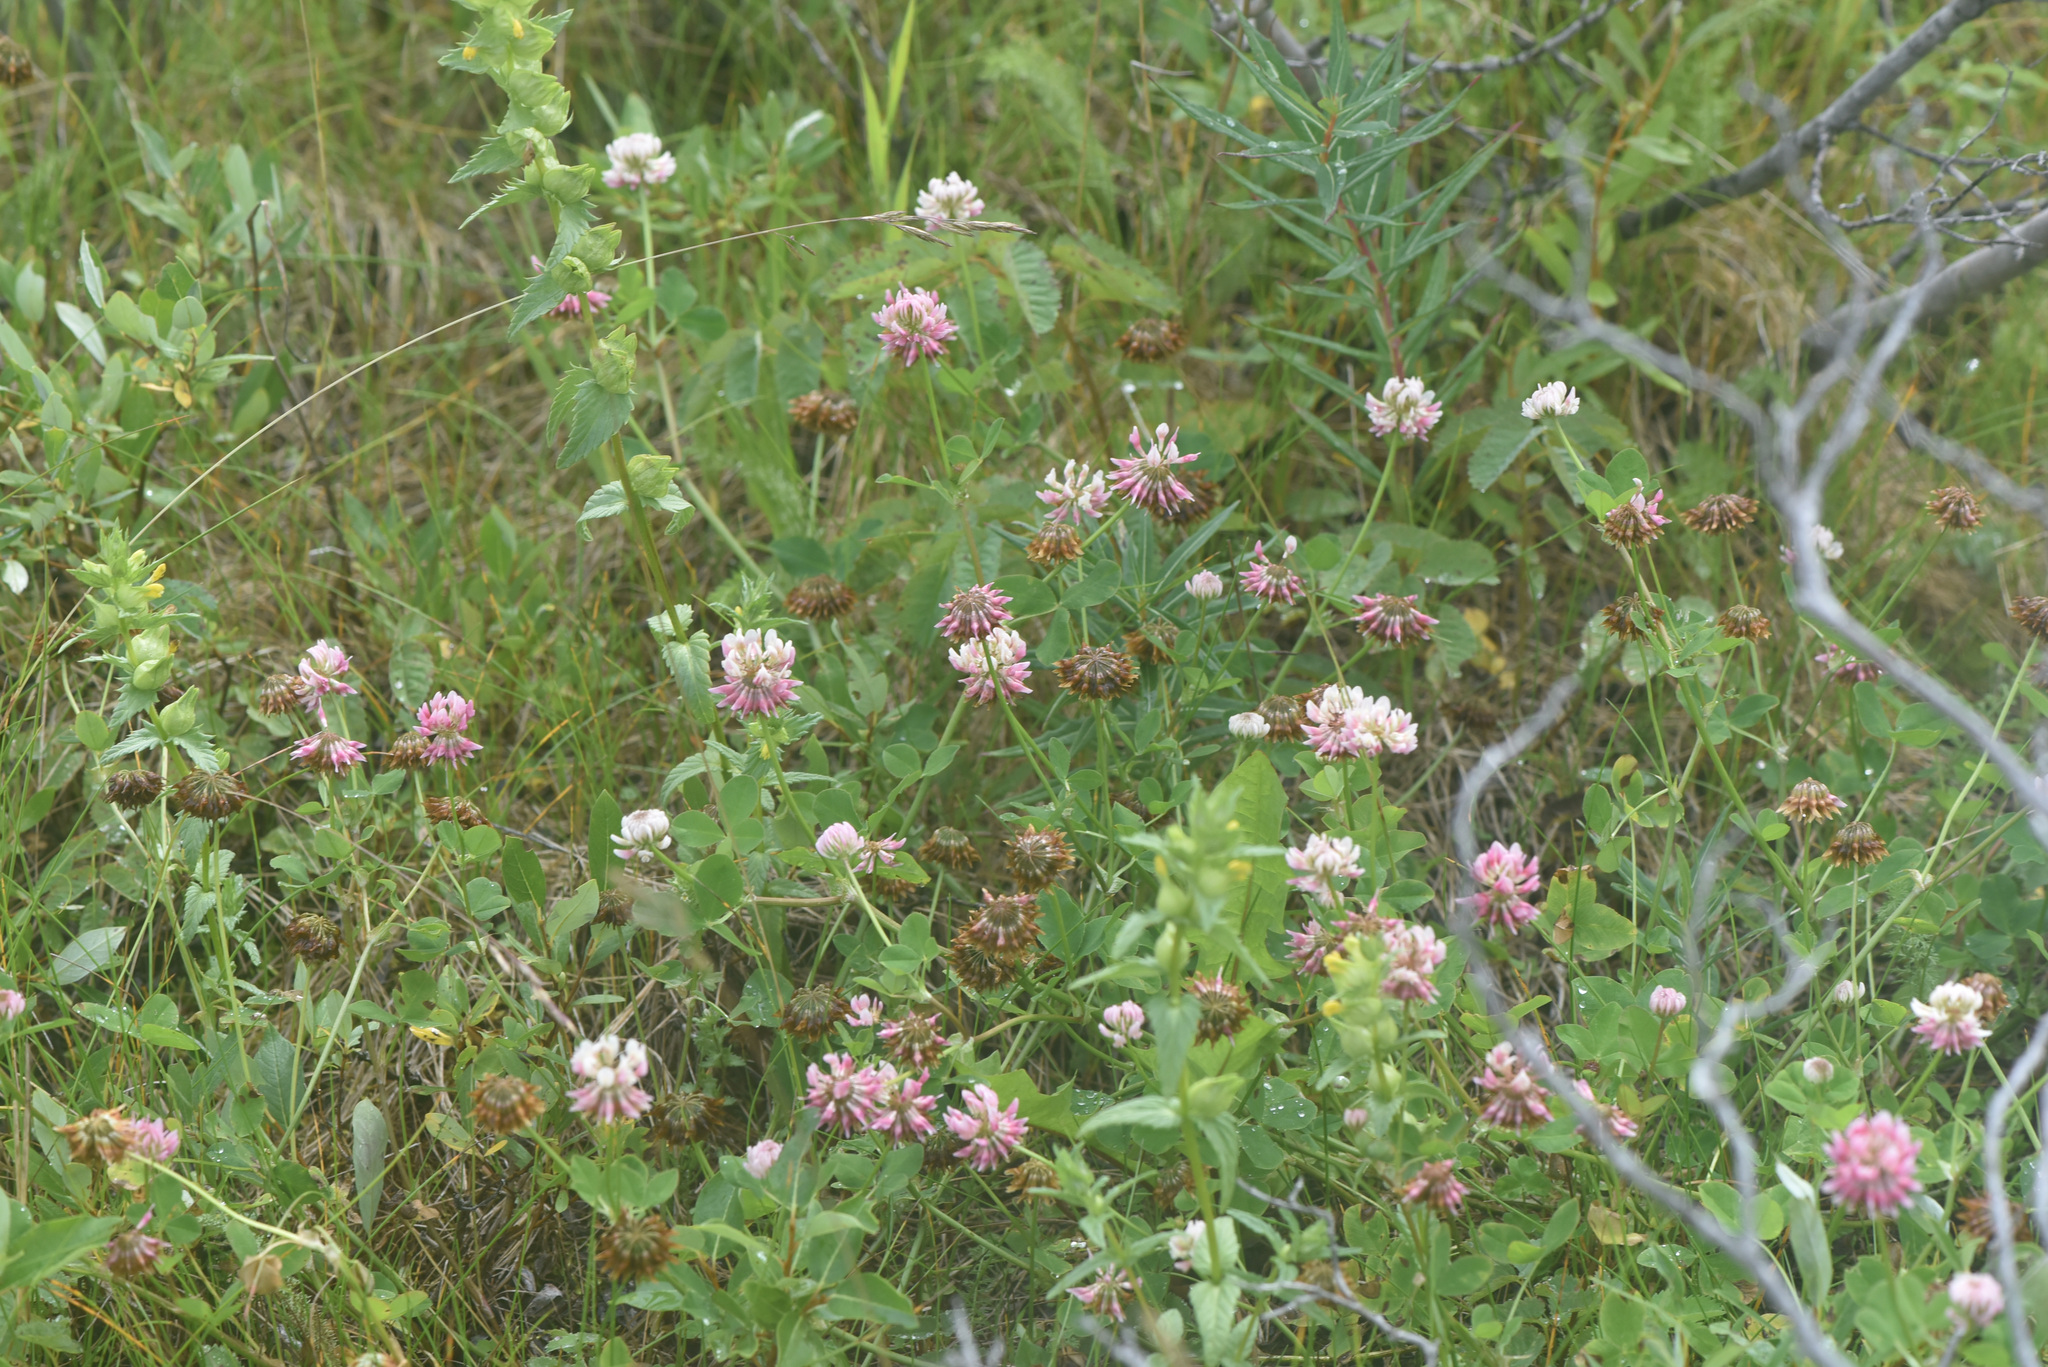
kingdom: Plantae
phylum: Tracheophyta
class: Magnoliopsida
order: Fabales
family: Fabaceae
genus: Trifolium
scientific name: Trifolium hybridum
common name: Alsike clover
